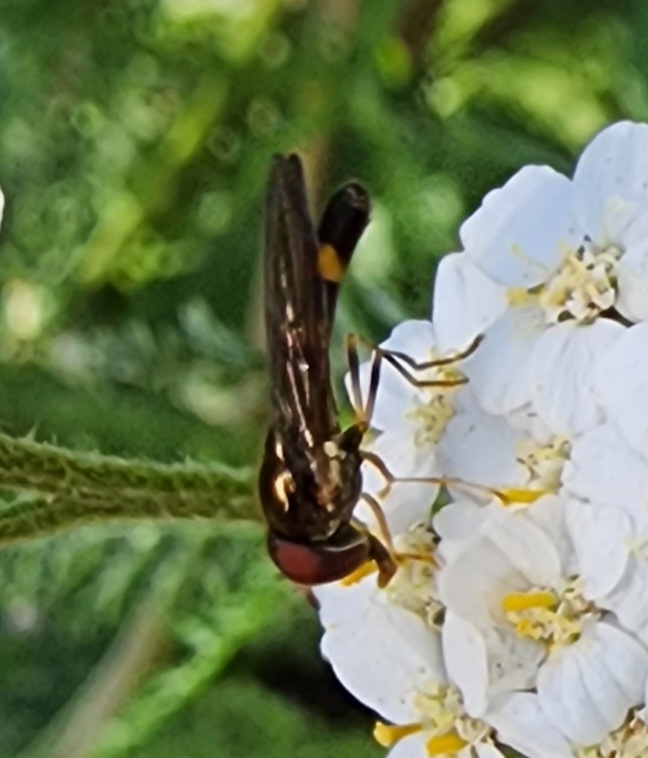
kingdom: Animalia
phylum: Arthropoda
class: Insecta
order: Diptera
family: Syrphidae
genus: Melanostoma
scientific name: Melanostoma mellina
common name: Hover fly
